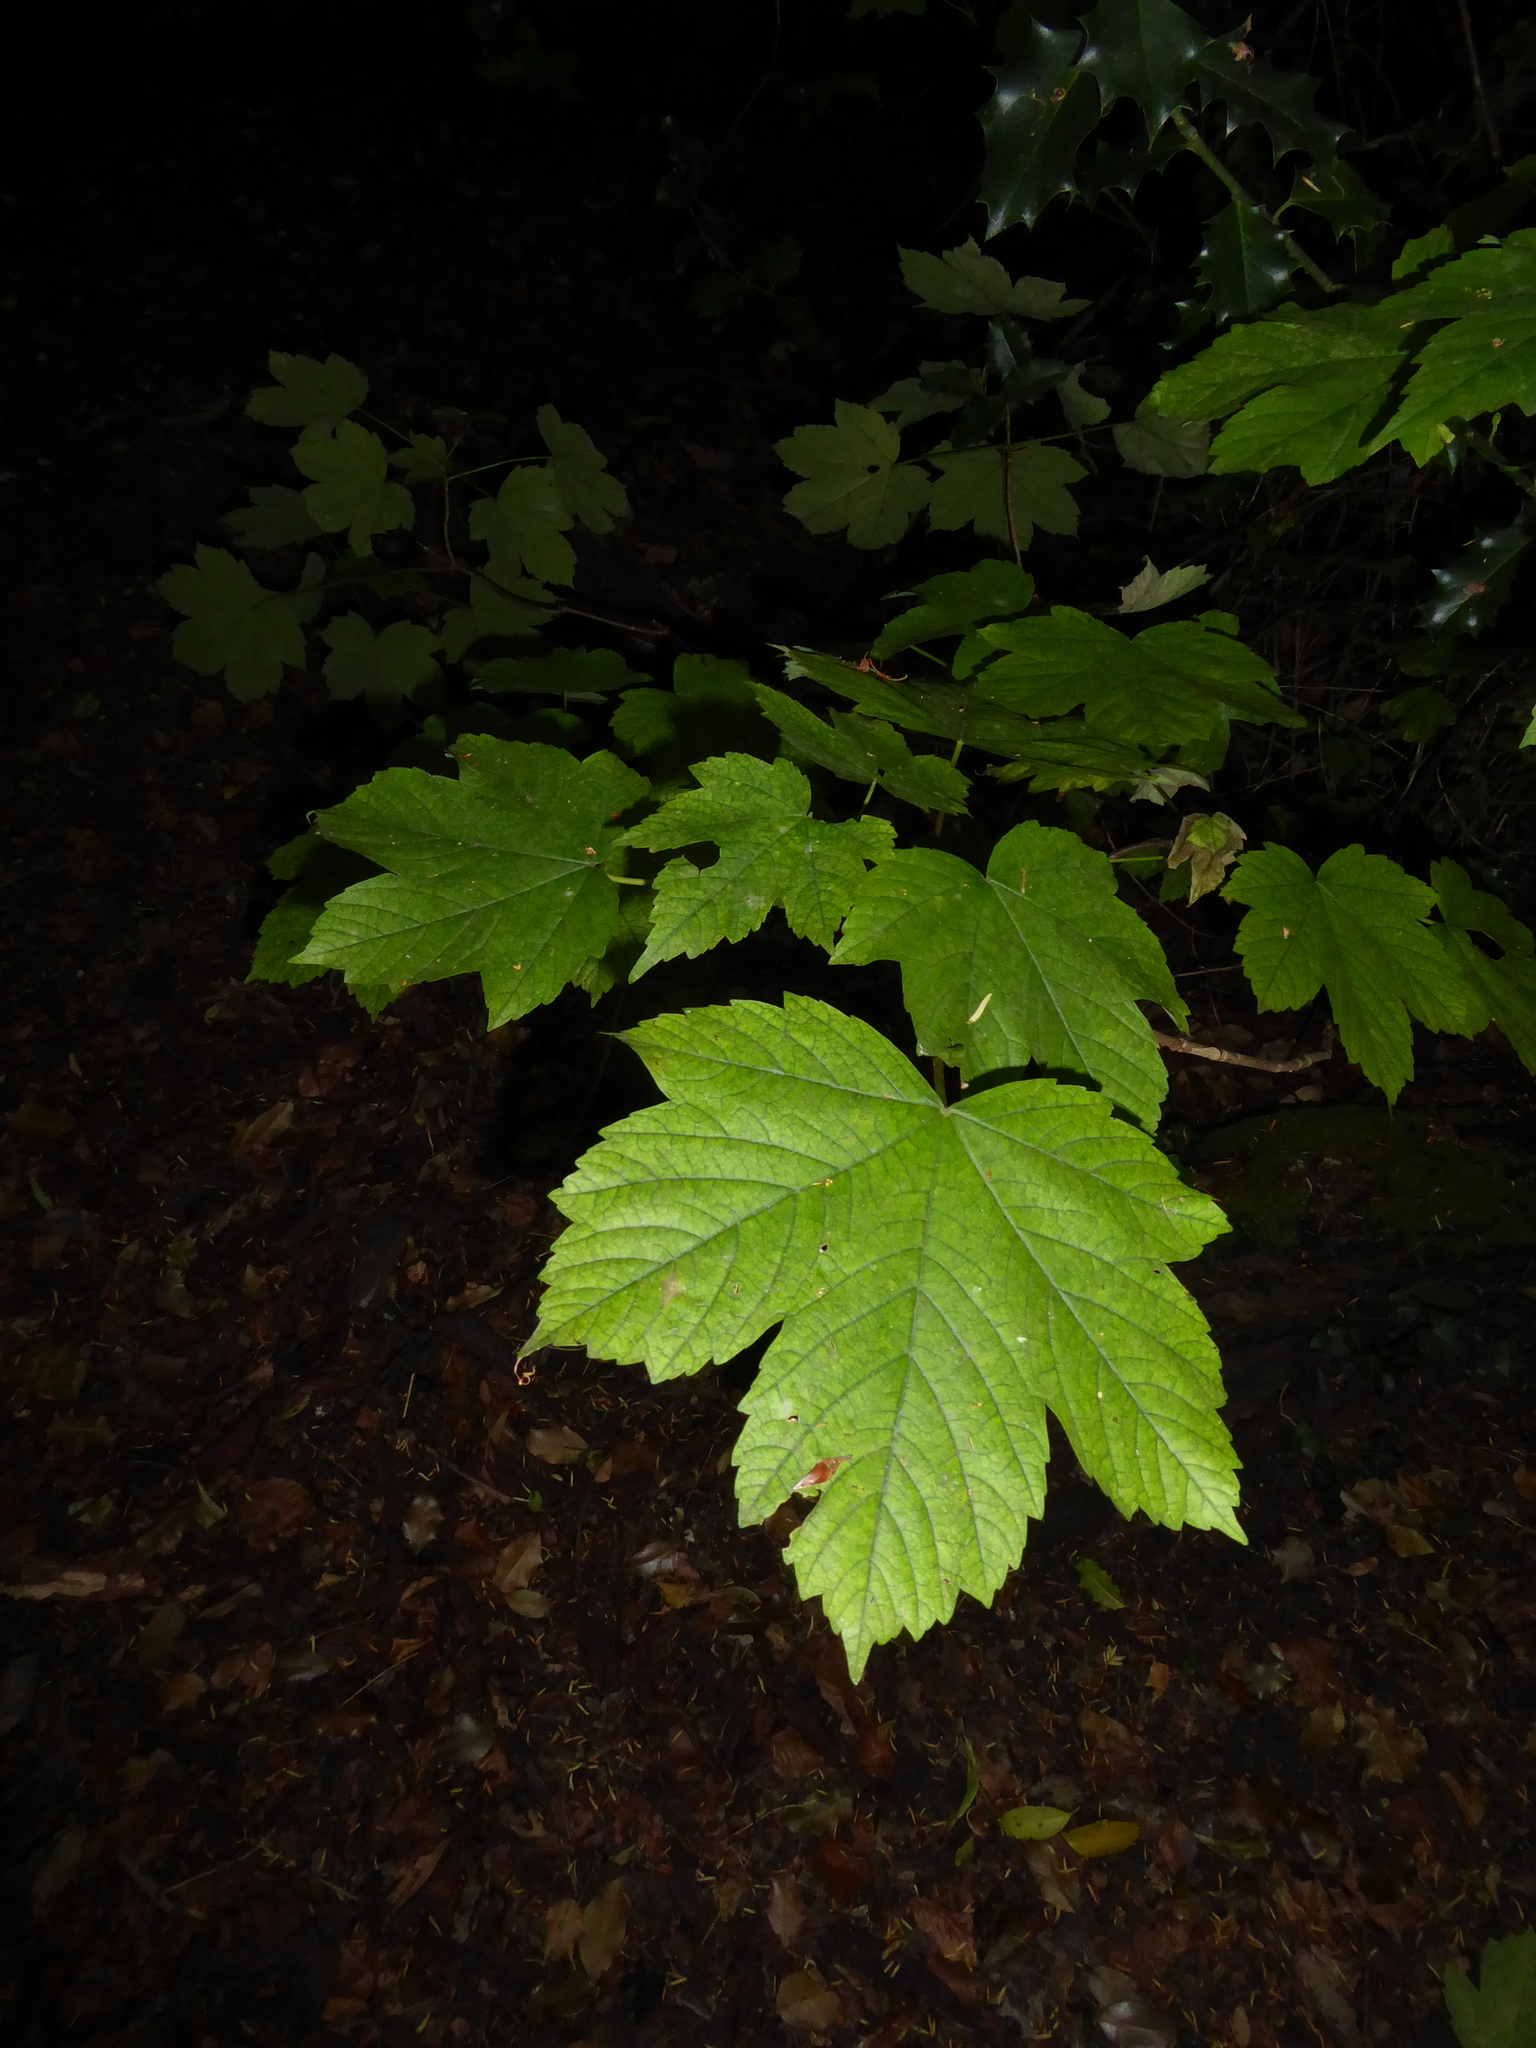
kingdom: Plantae
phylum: Tracheophyta
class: Magnoliopsida
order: Sapindales
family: Sapindaceae
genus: Acer
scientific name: Acer pseudoplatanus
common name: Sycamore
